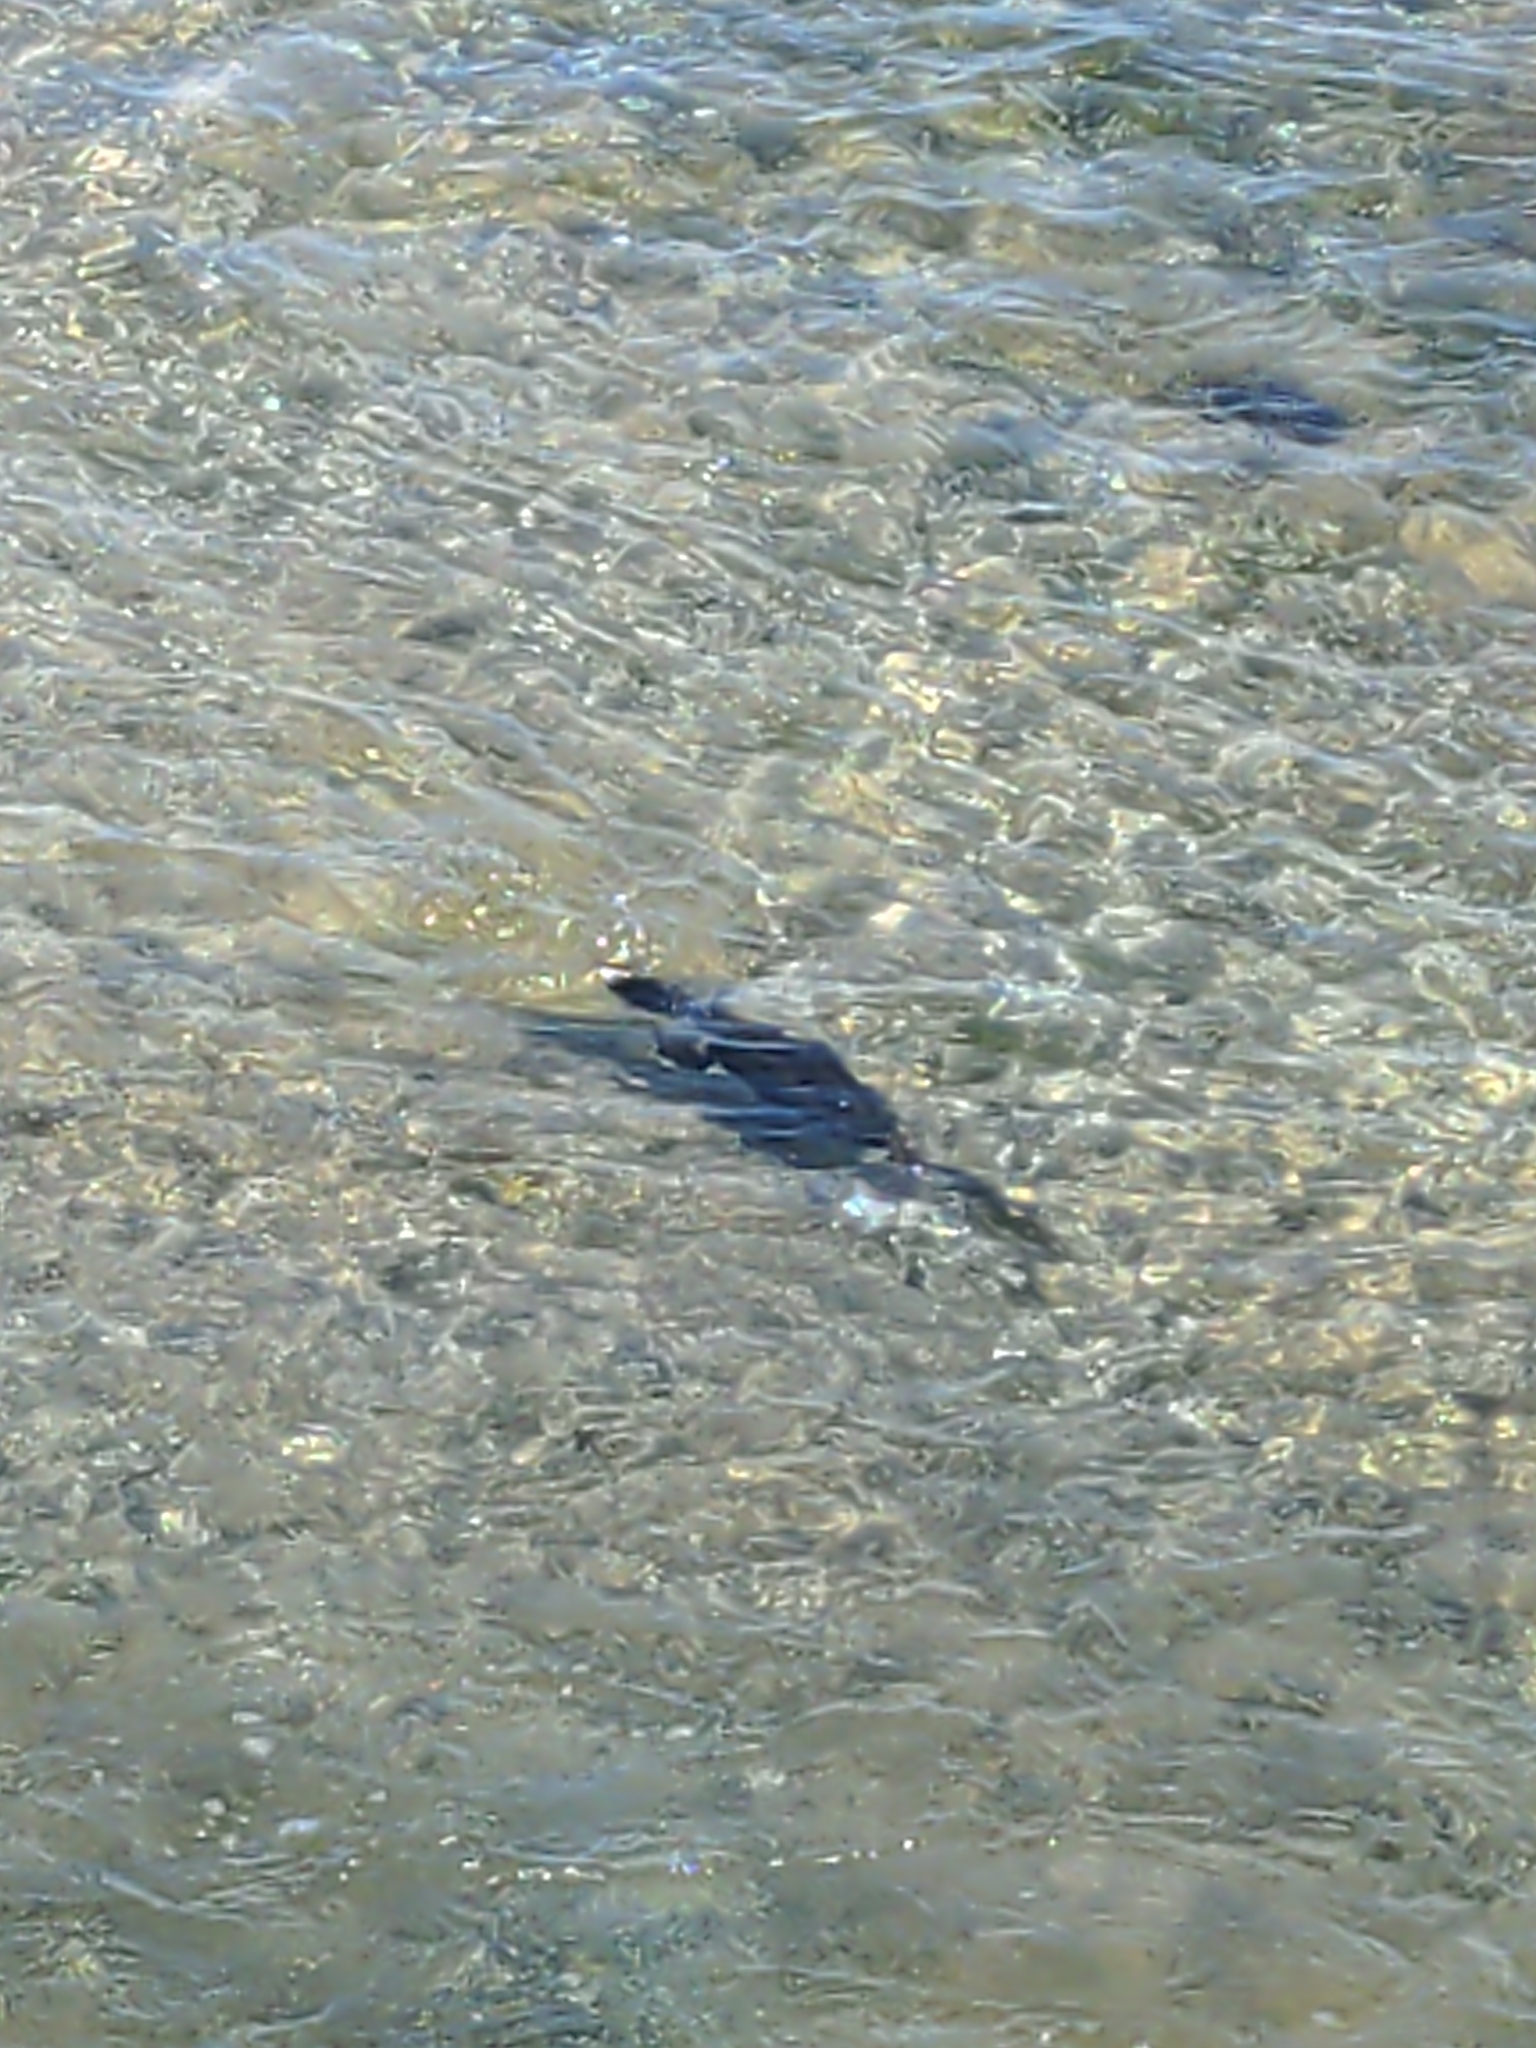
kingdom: Animalia
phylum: Chordata
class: Aves
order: Suliformes
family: Phalacrocoracidae
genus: Phalacrocorax
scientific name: Phalacrocorax auritus
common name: Double-crested cormorant
